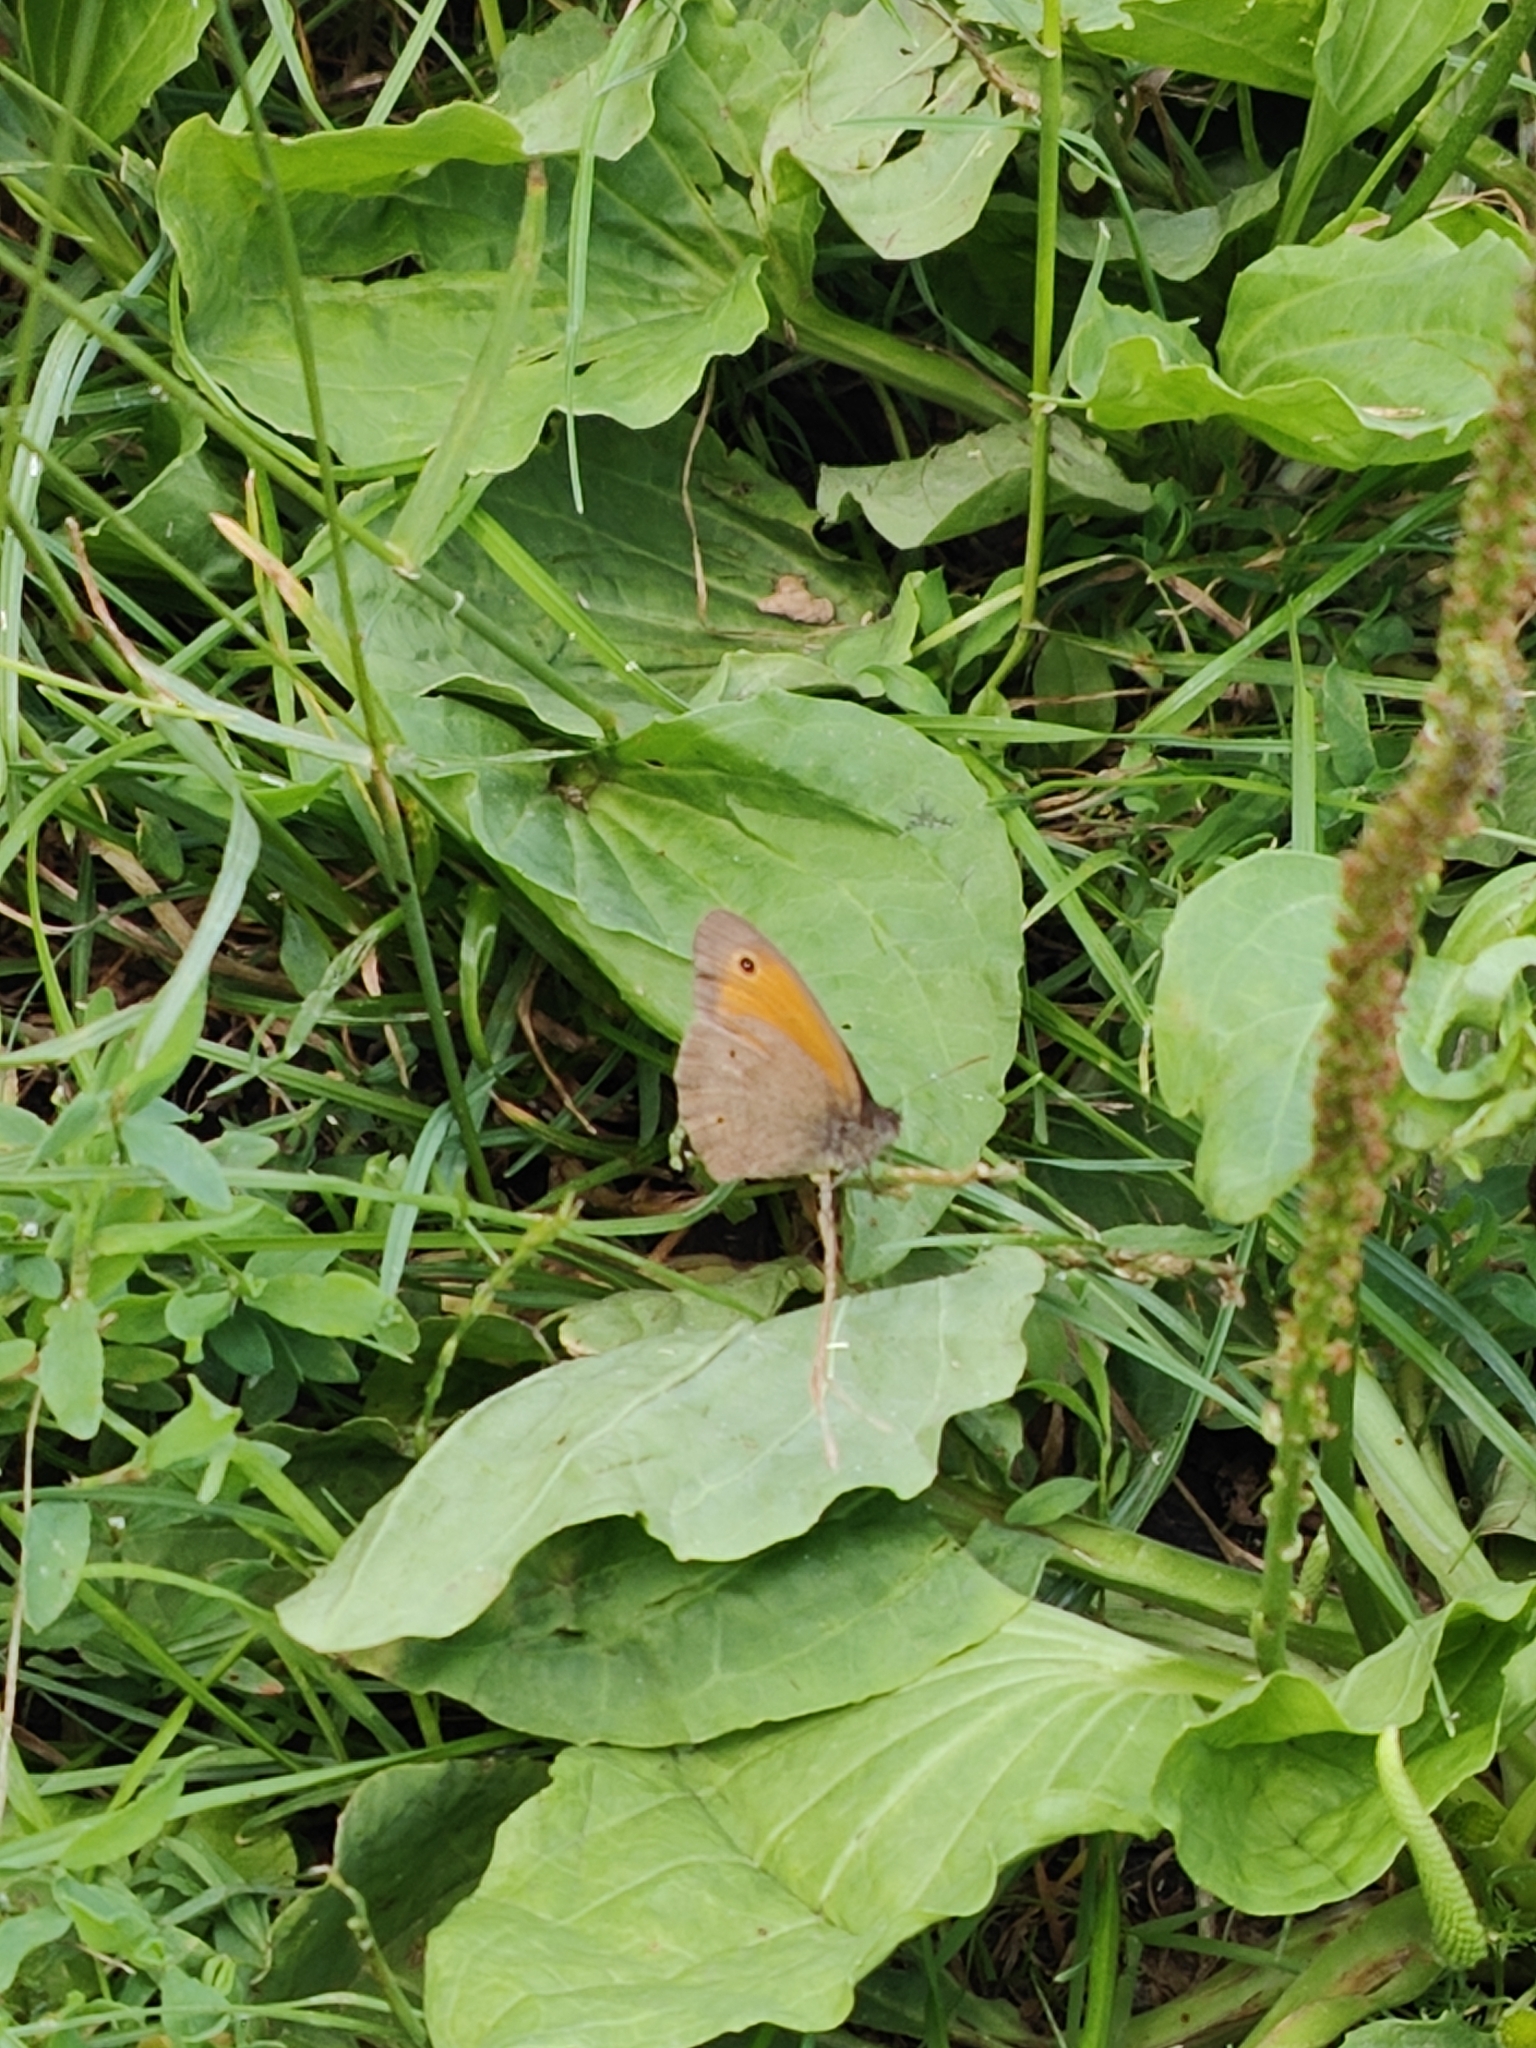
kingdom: Animalia
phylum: Arthropoda
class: Insecta
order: Lepidoptera
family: Nymphalidae
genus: Maniola
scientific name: Maniola jurtina
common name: Meadow brown
